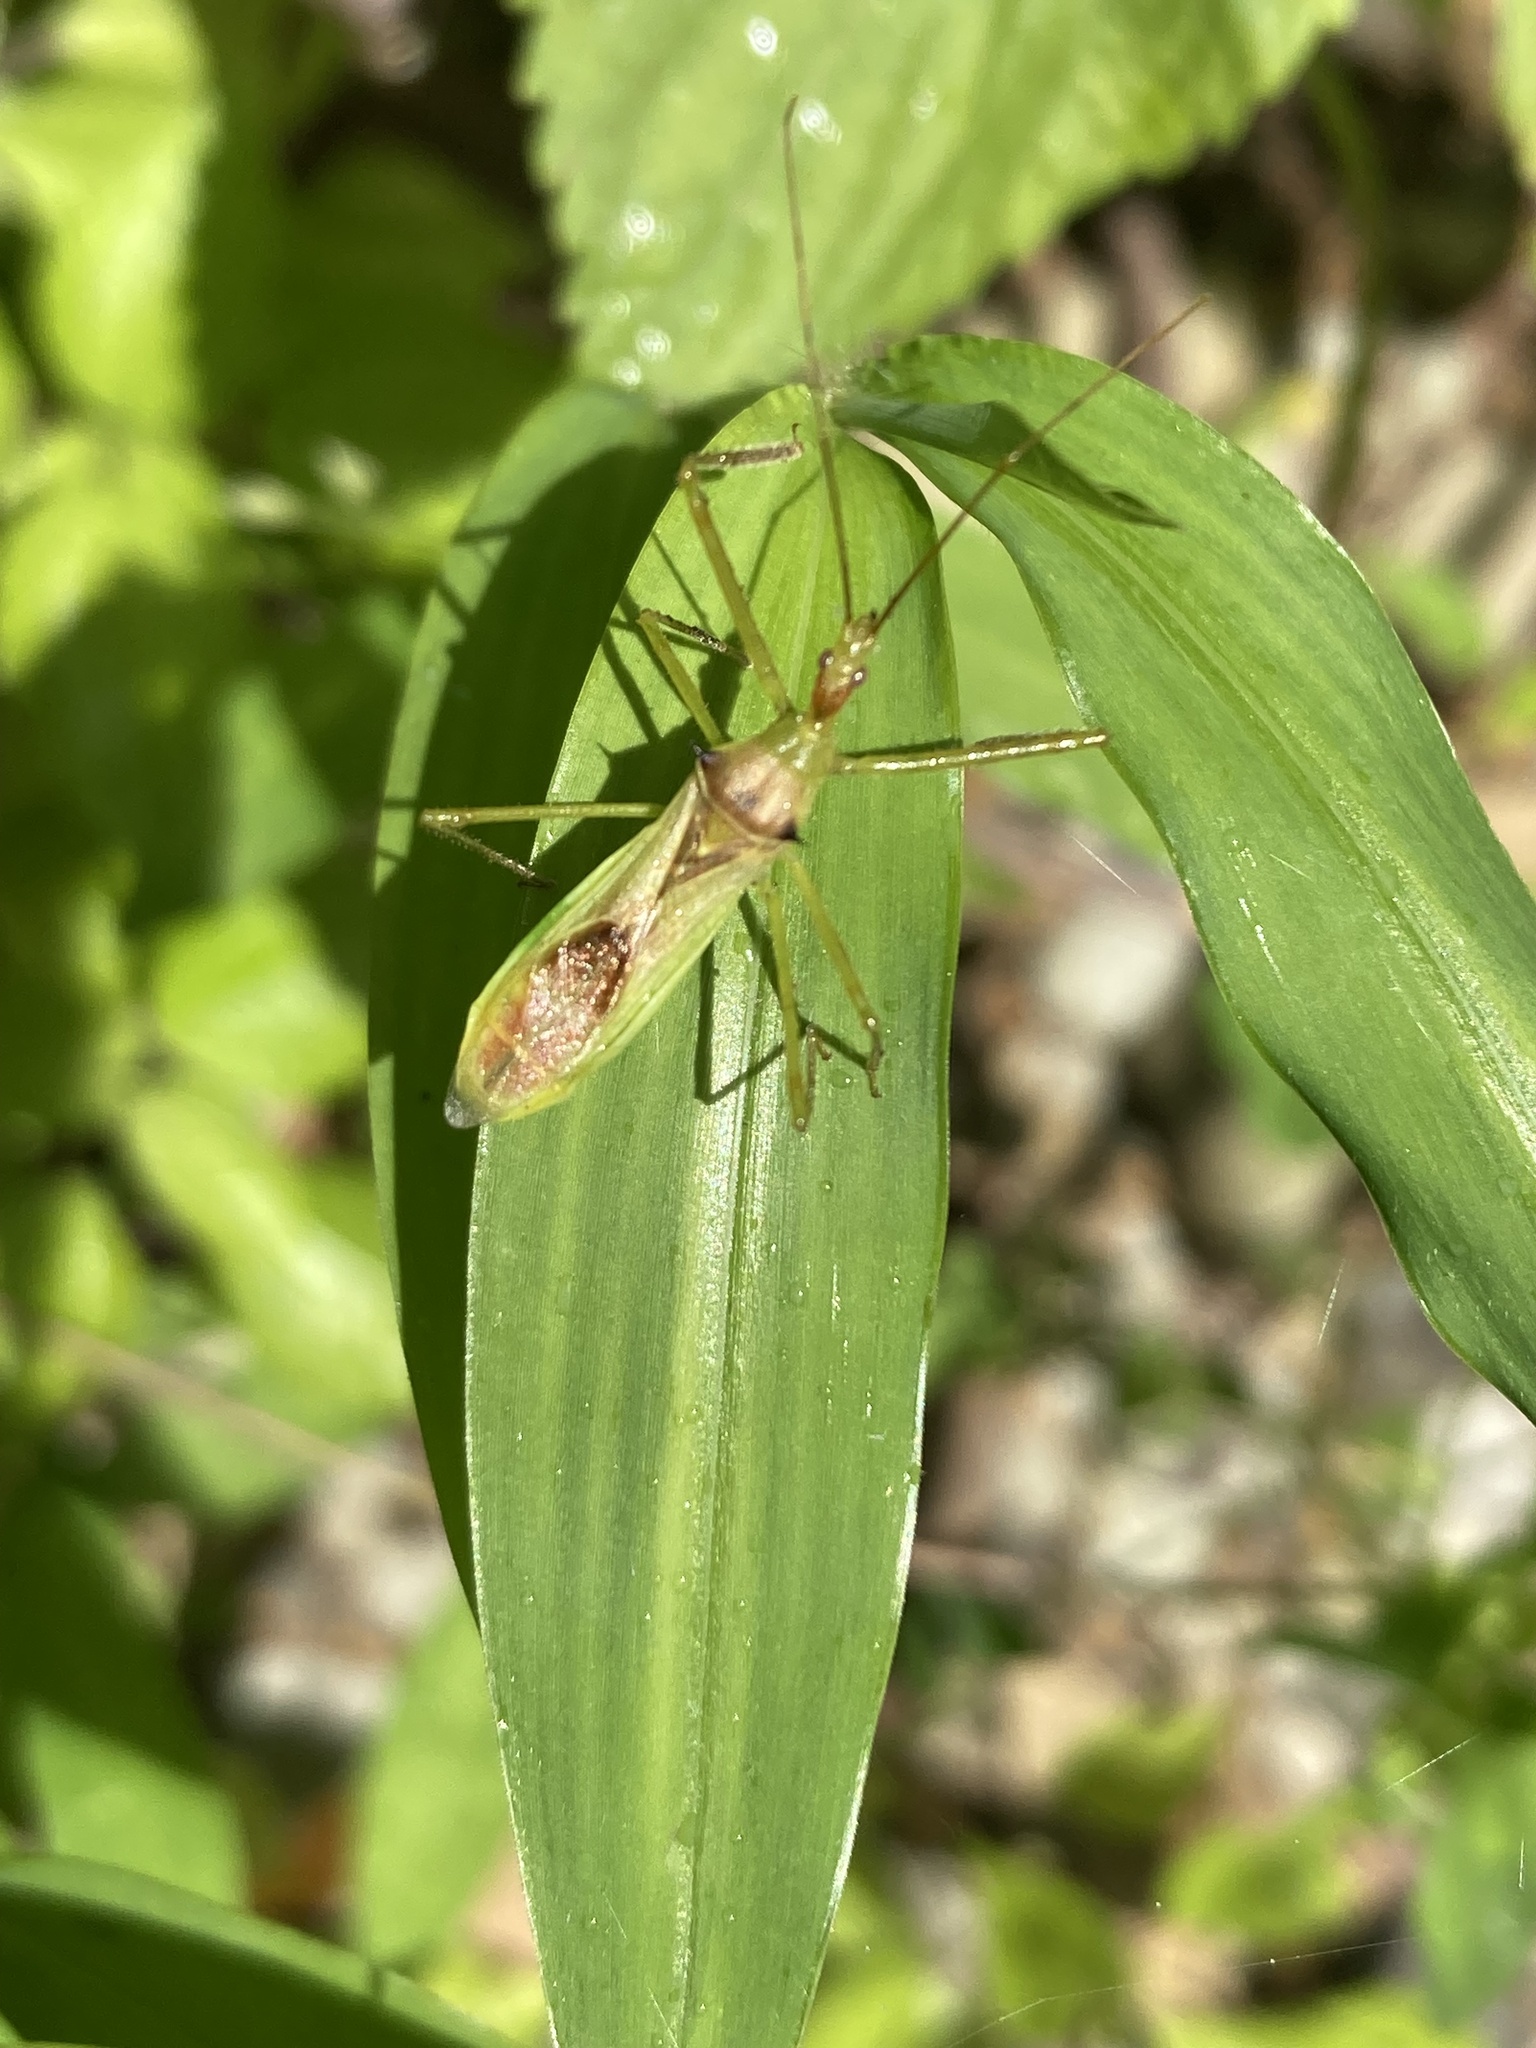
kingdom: Animalia
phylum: Arthropoda
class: Insecta
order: Hemiptera
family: Reduviidae
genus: Zelus
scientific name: Zelus luridus
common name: Pale green assassin bug
